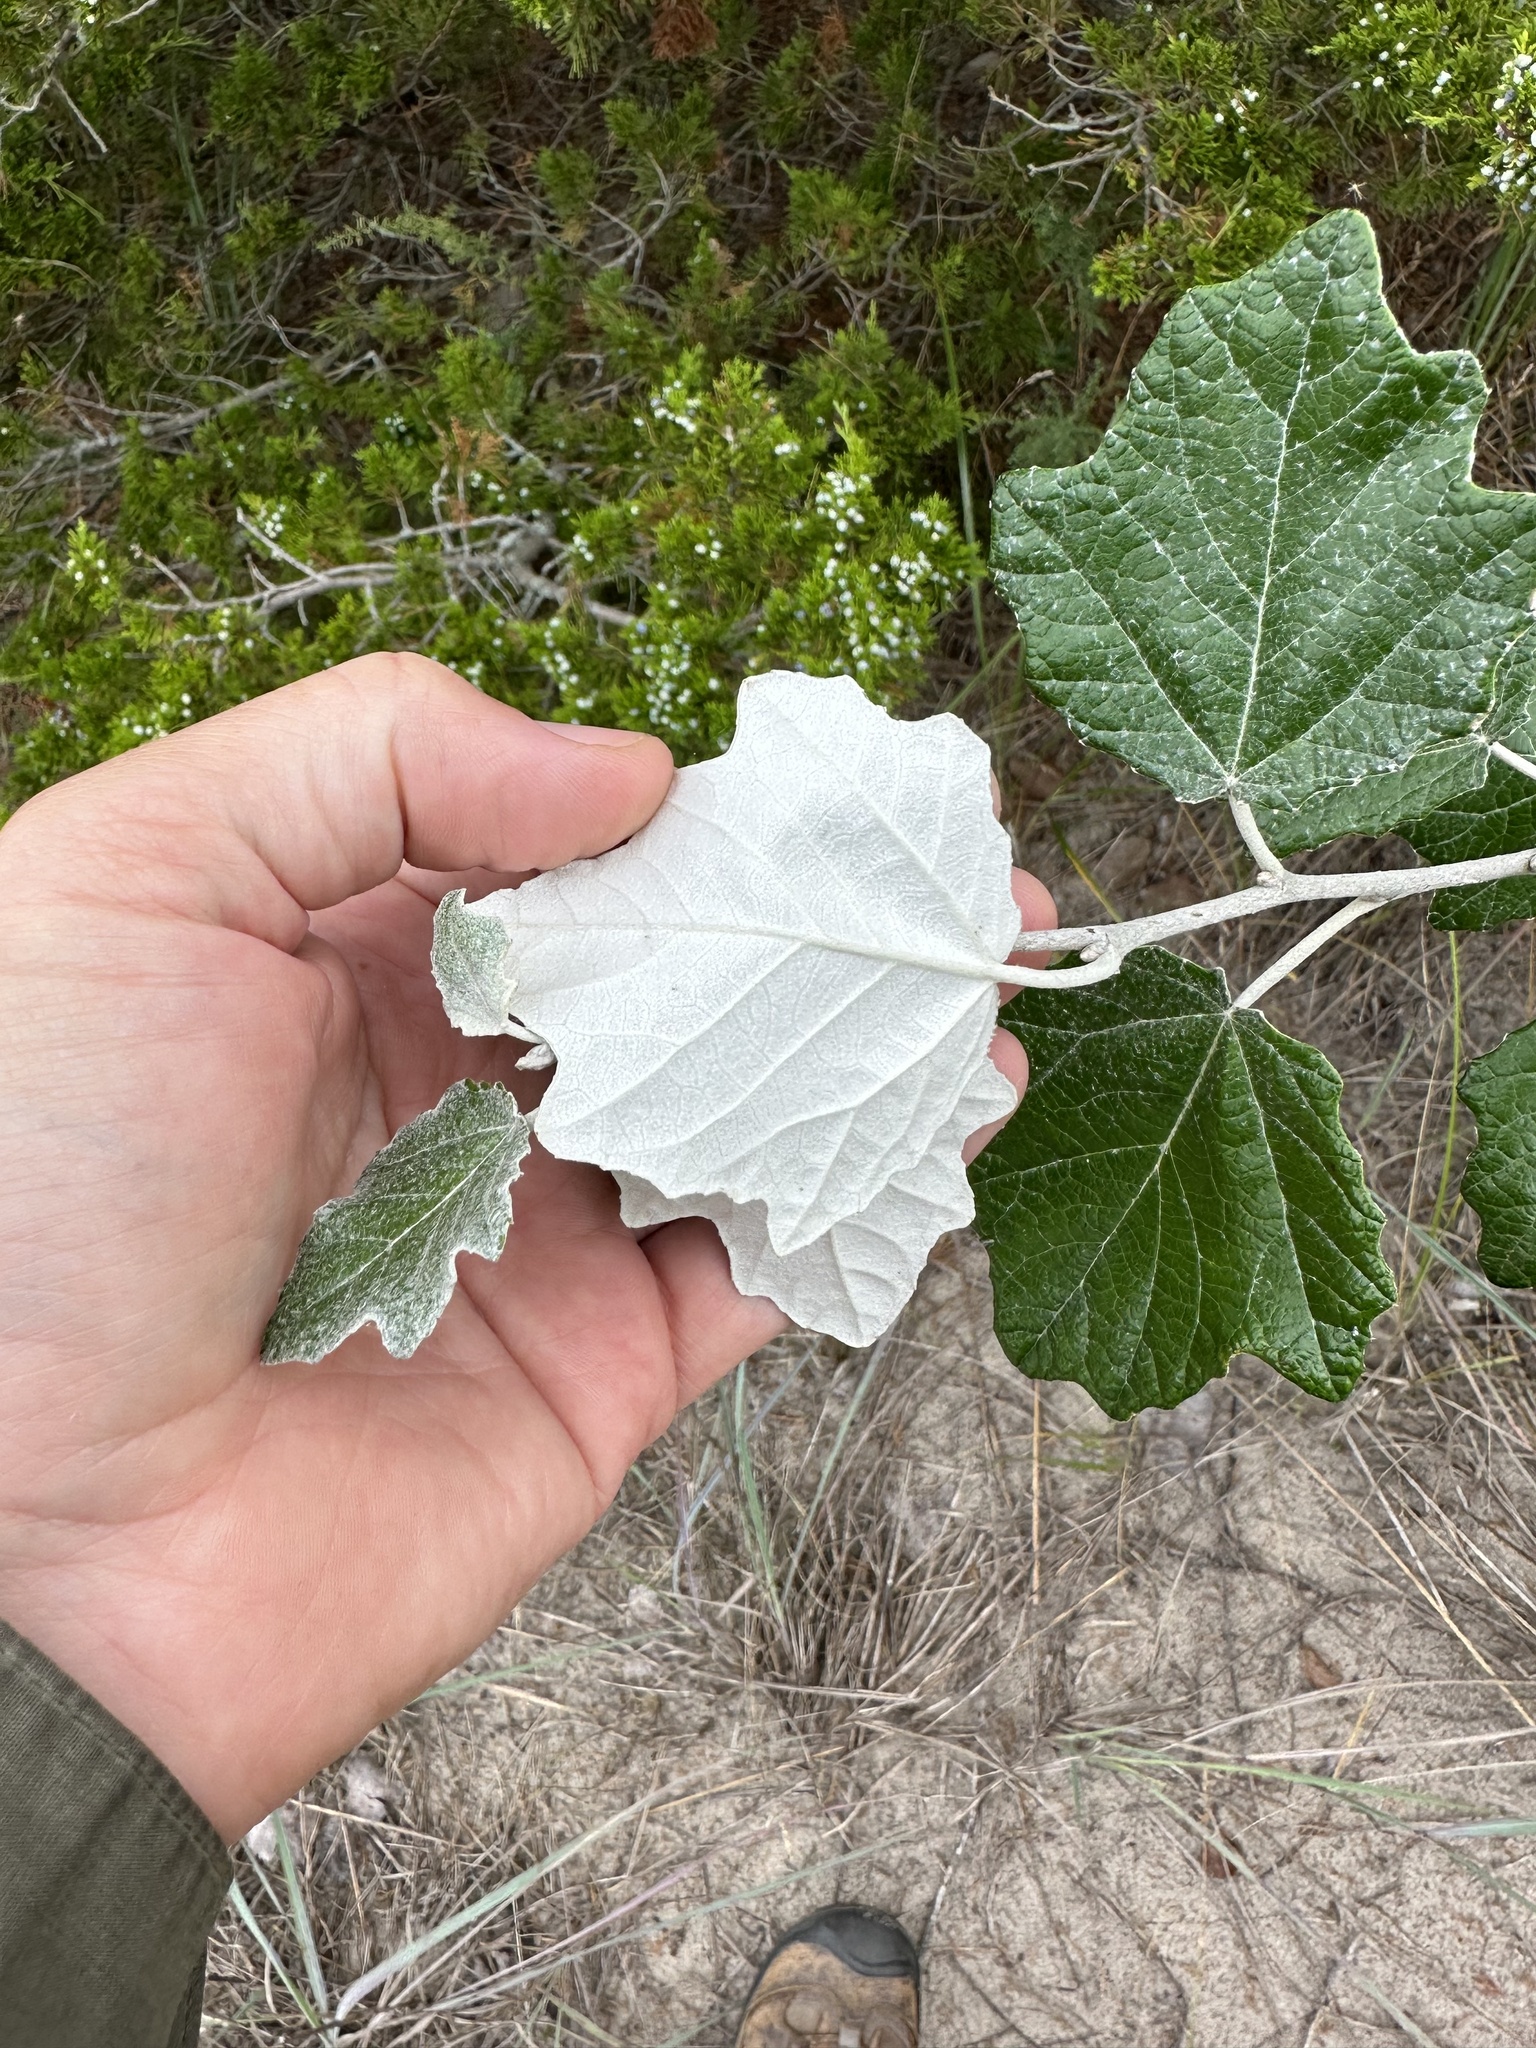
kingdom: Plantae
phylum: Tracheophyta
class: Magnoliopsida
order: Malpighiales
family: Salicaceae
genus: Populus
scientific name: Populus alba
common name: White poplar
